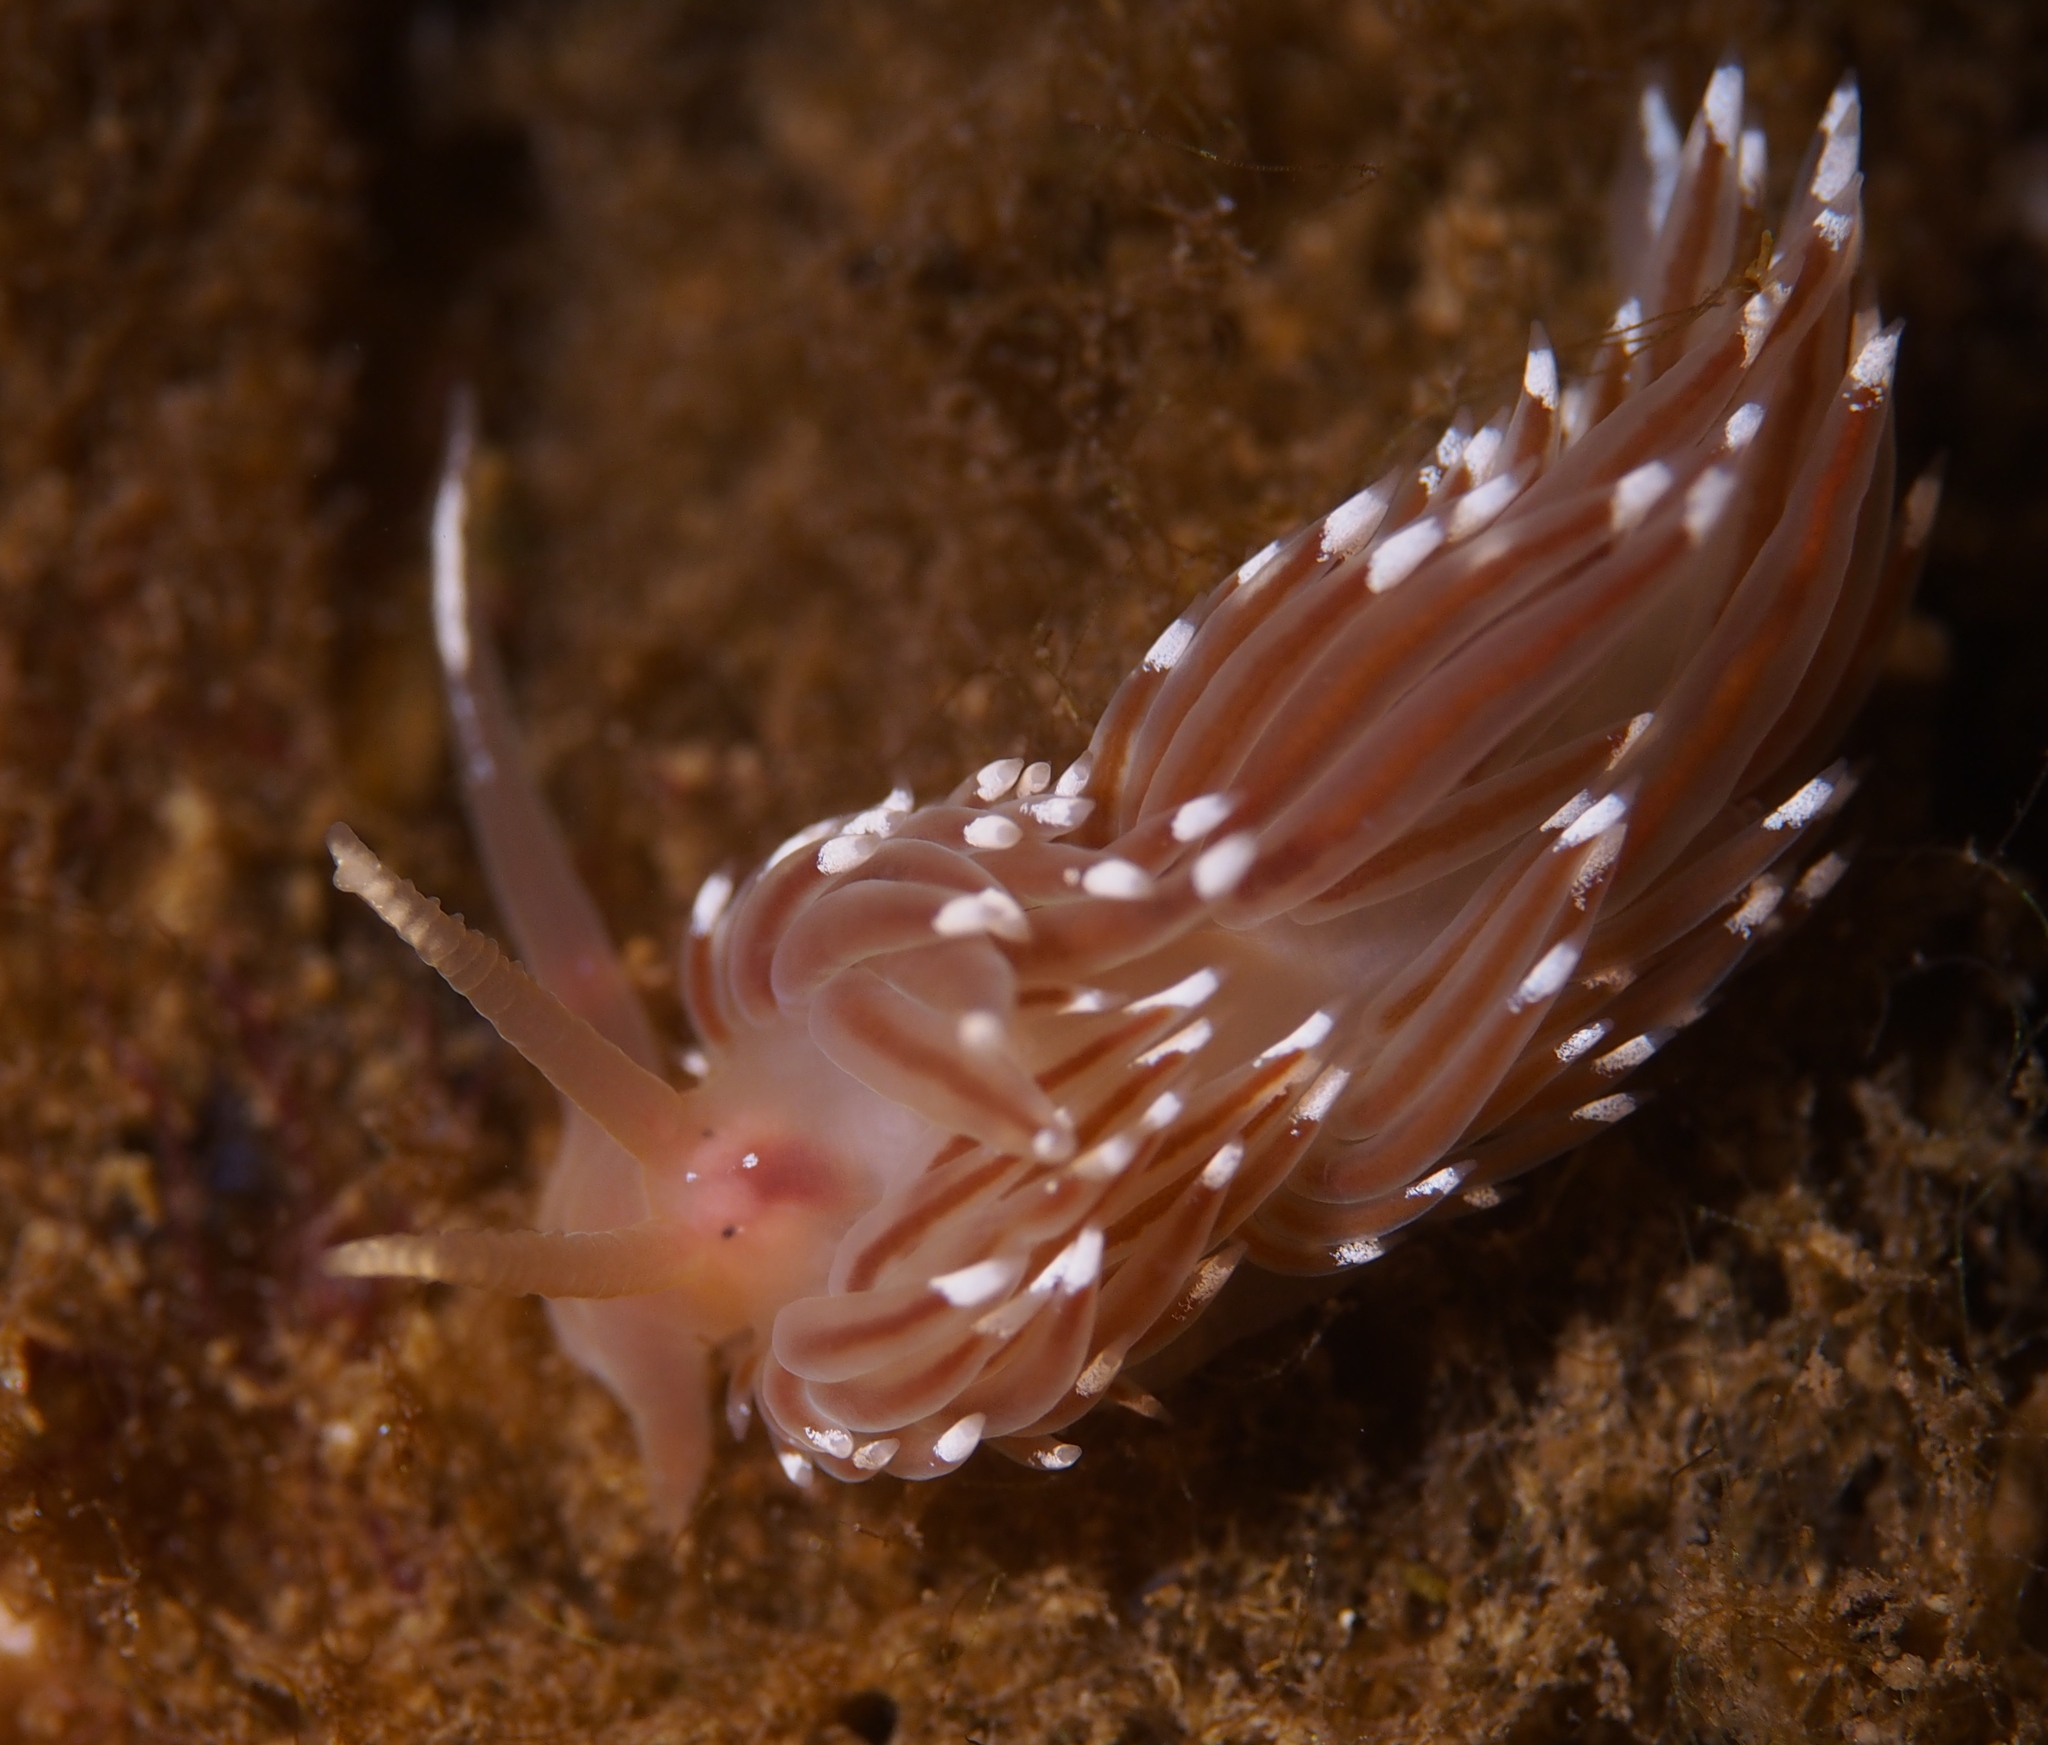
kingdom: Animalia
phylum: Mollusca
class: Gastropoda
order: Nudibranchia
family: Facelinidae
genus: Facelina
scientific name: Facelina bostoniensis
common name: Boston facelina
